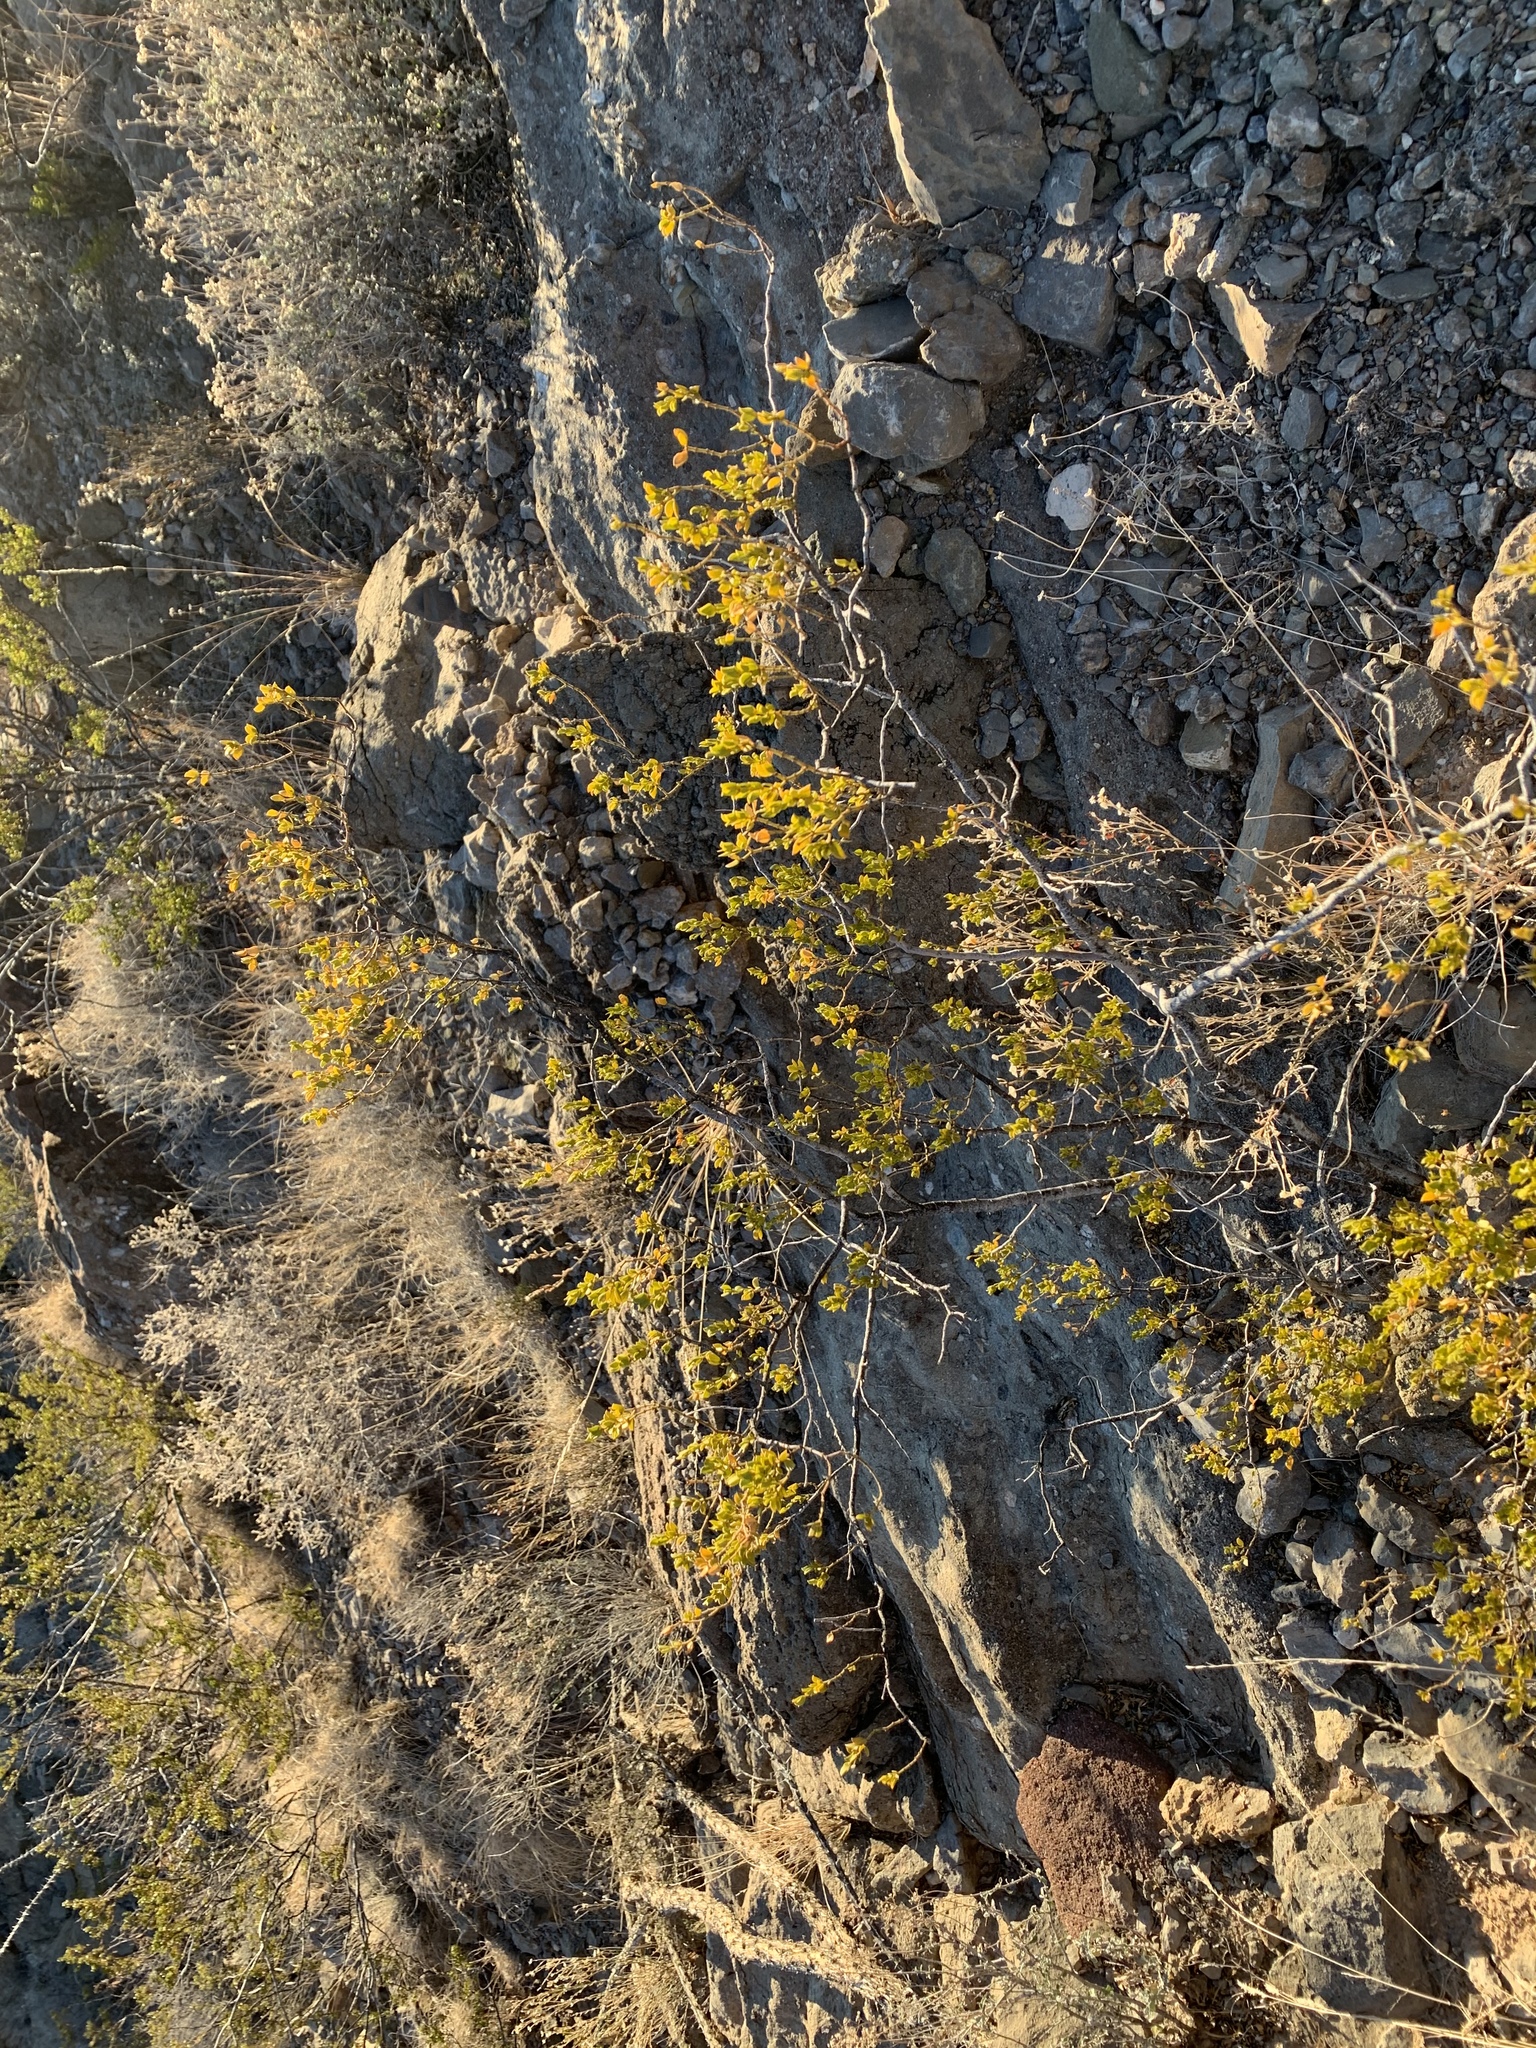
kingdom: Plantae
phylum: Tracheophyta
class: Magnoliopsida
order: Zygophyllales
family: Zygophyllaceae
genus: Larrea
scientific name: Larrea tridentata
